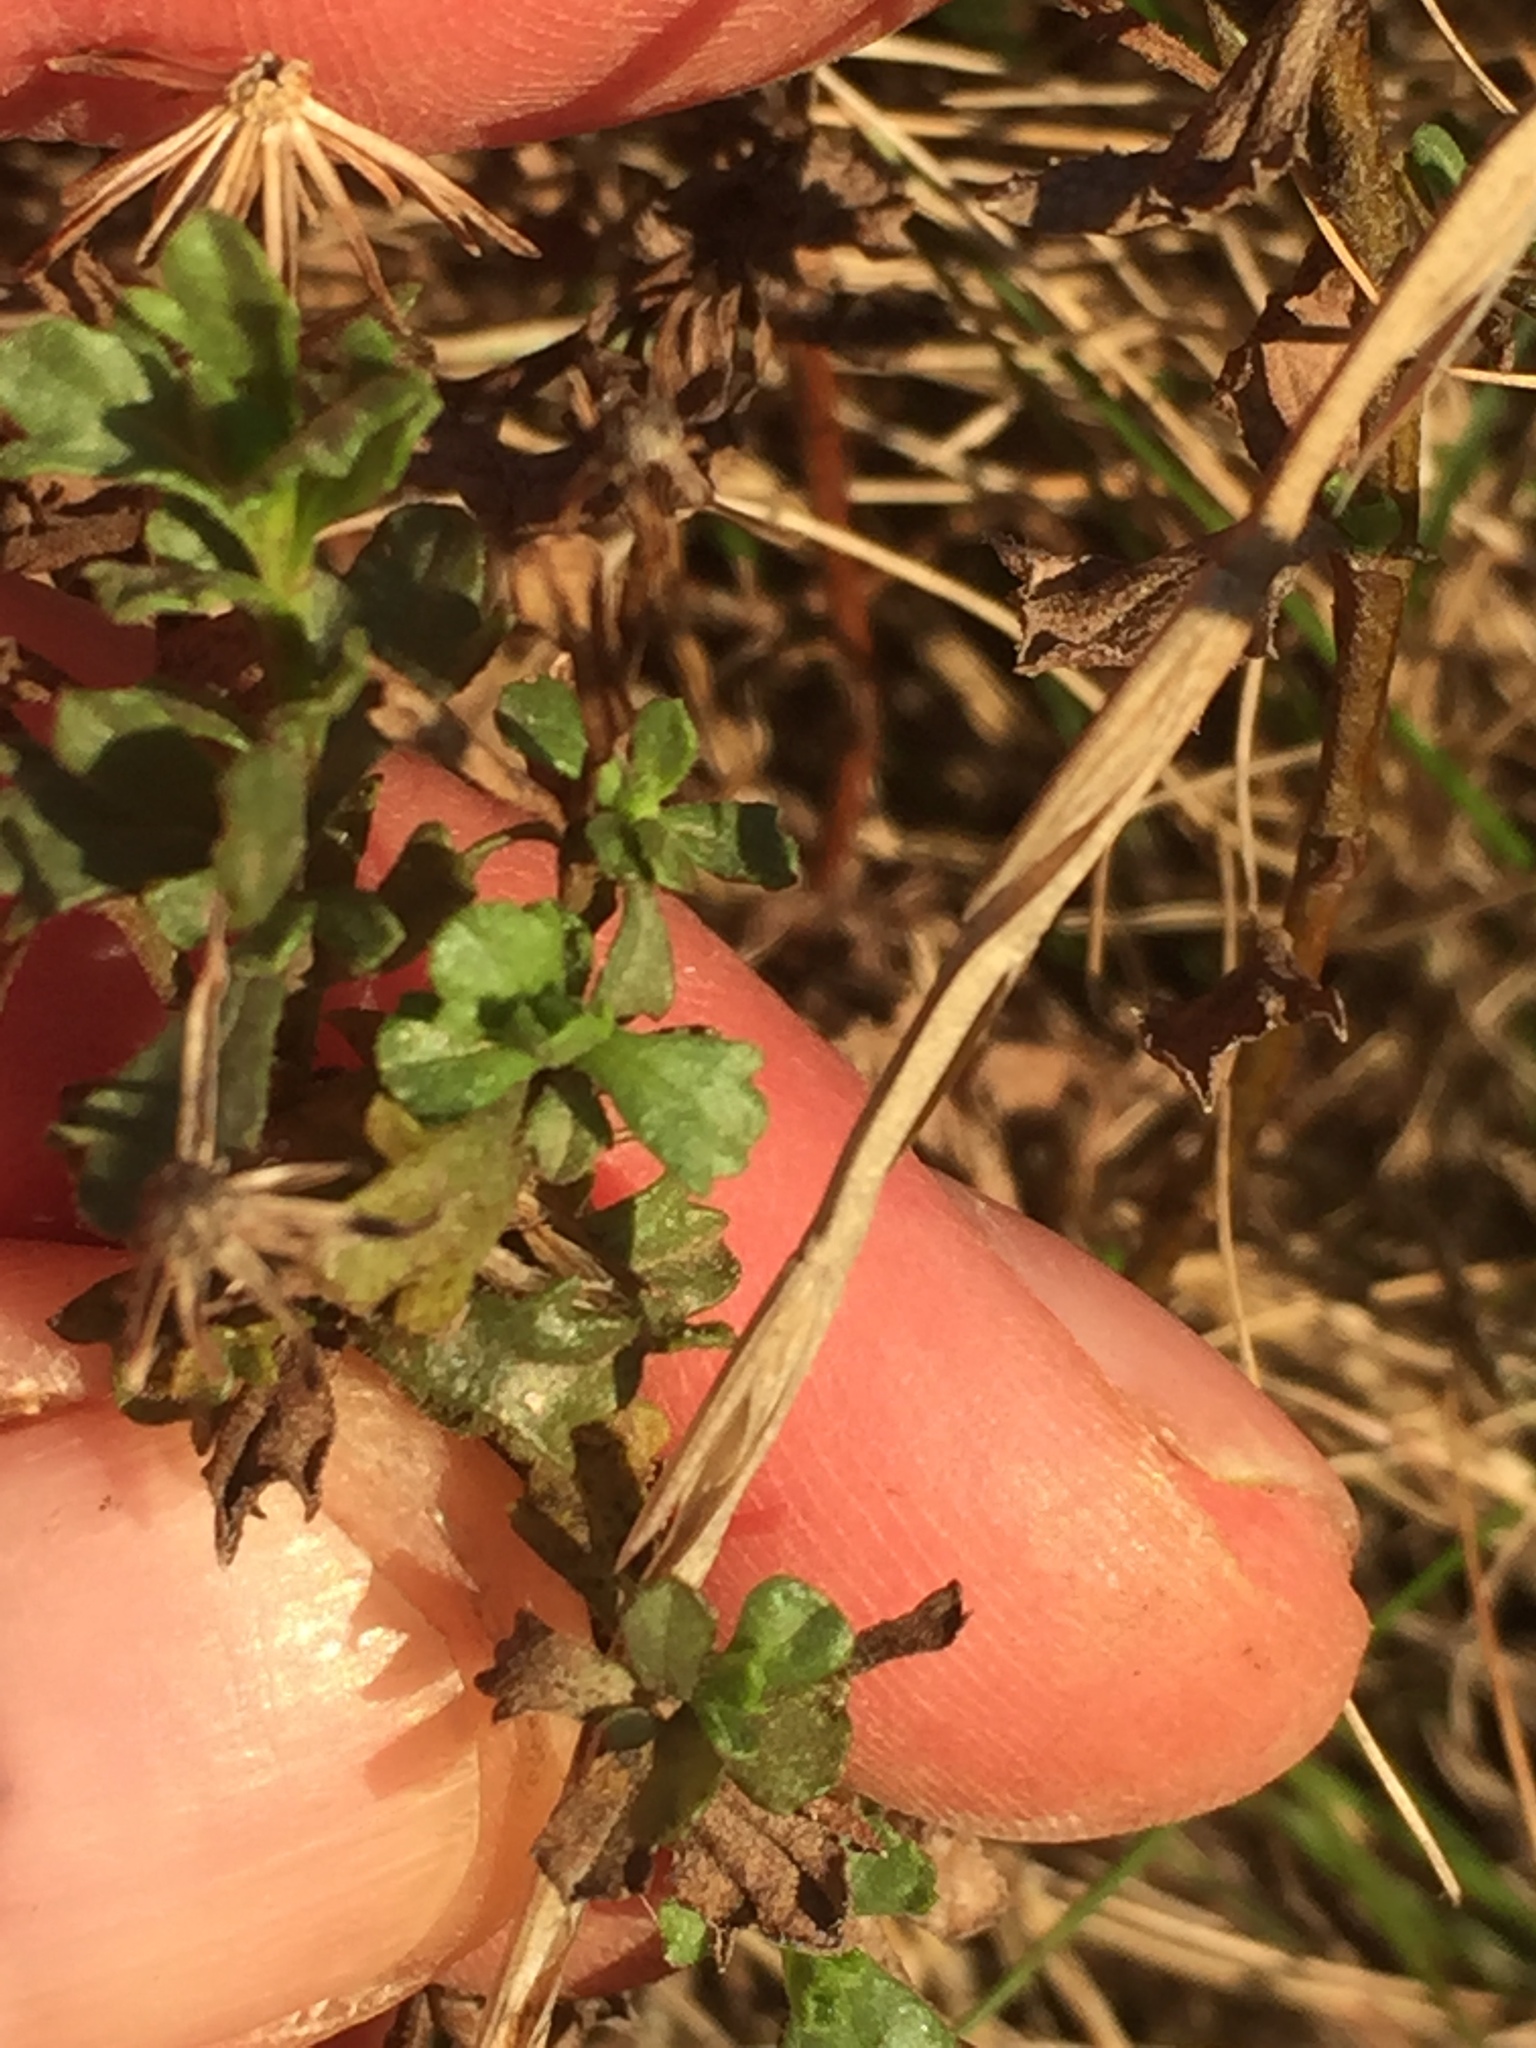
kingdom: Plantae
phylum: Tracheophyta
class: Magnoliopsida
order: Asterales
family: Asteraceae
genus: Vittadinia
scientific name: Vittadinia australis
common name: White fuzzweed
